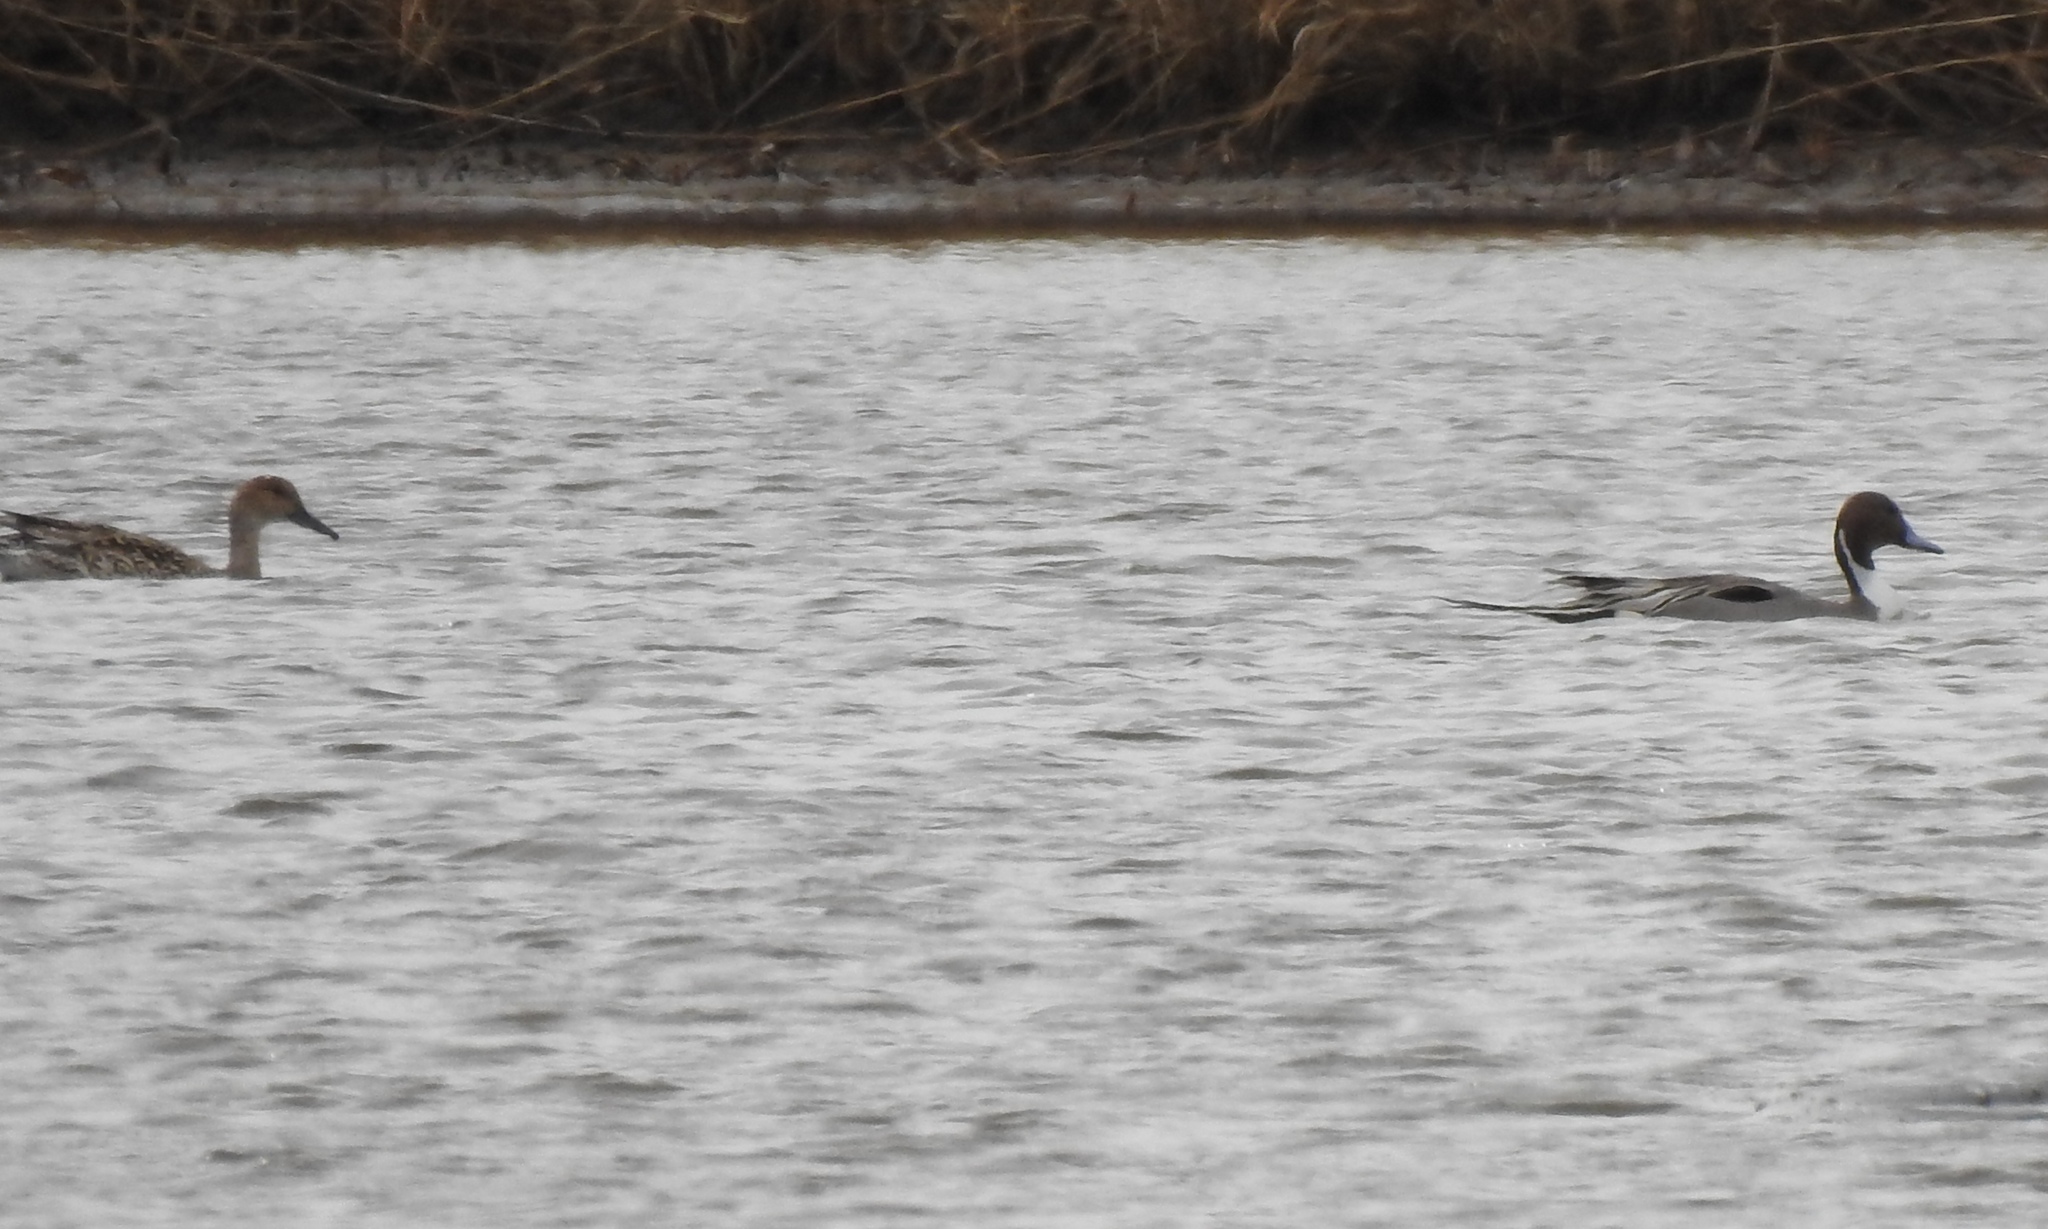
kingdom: Animalia
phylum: Chordata
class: Aves
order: Anseriformes
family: Anatidae
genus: Anas
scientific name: Anas acuta
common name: Northern pintail
